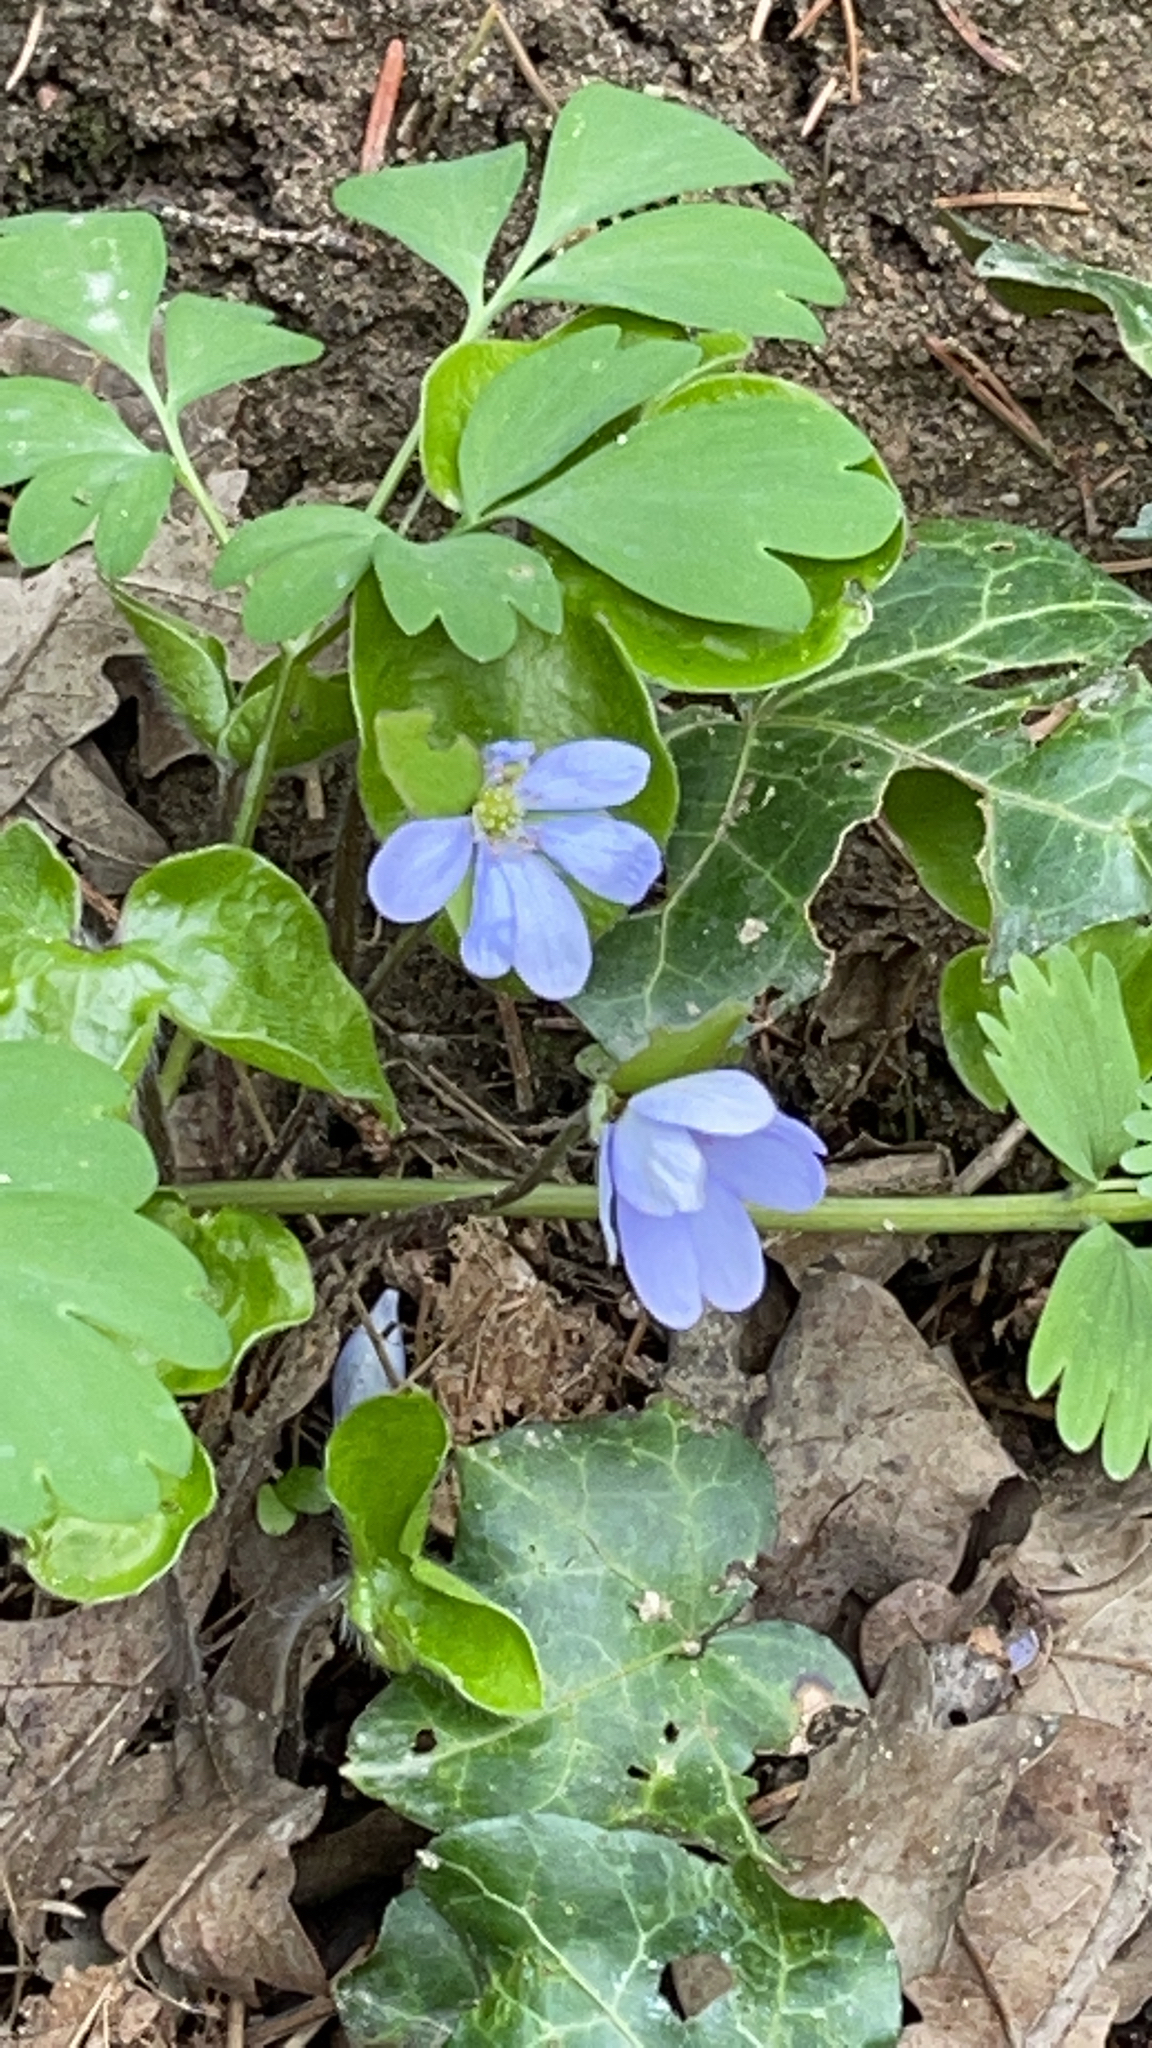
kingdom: Plantae
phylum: Tracheophyta
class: Magnoliopsida
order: Ranunculales
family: Ranunculaceae
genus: Hepatica
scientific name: Hepatica nobilis
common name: Liverleaf
